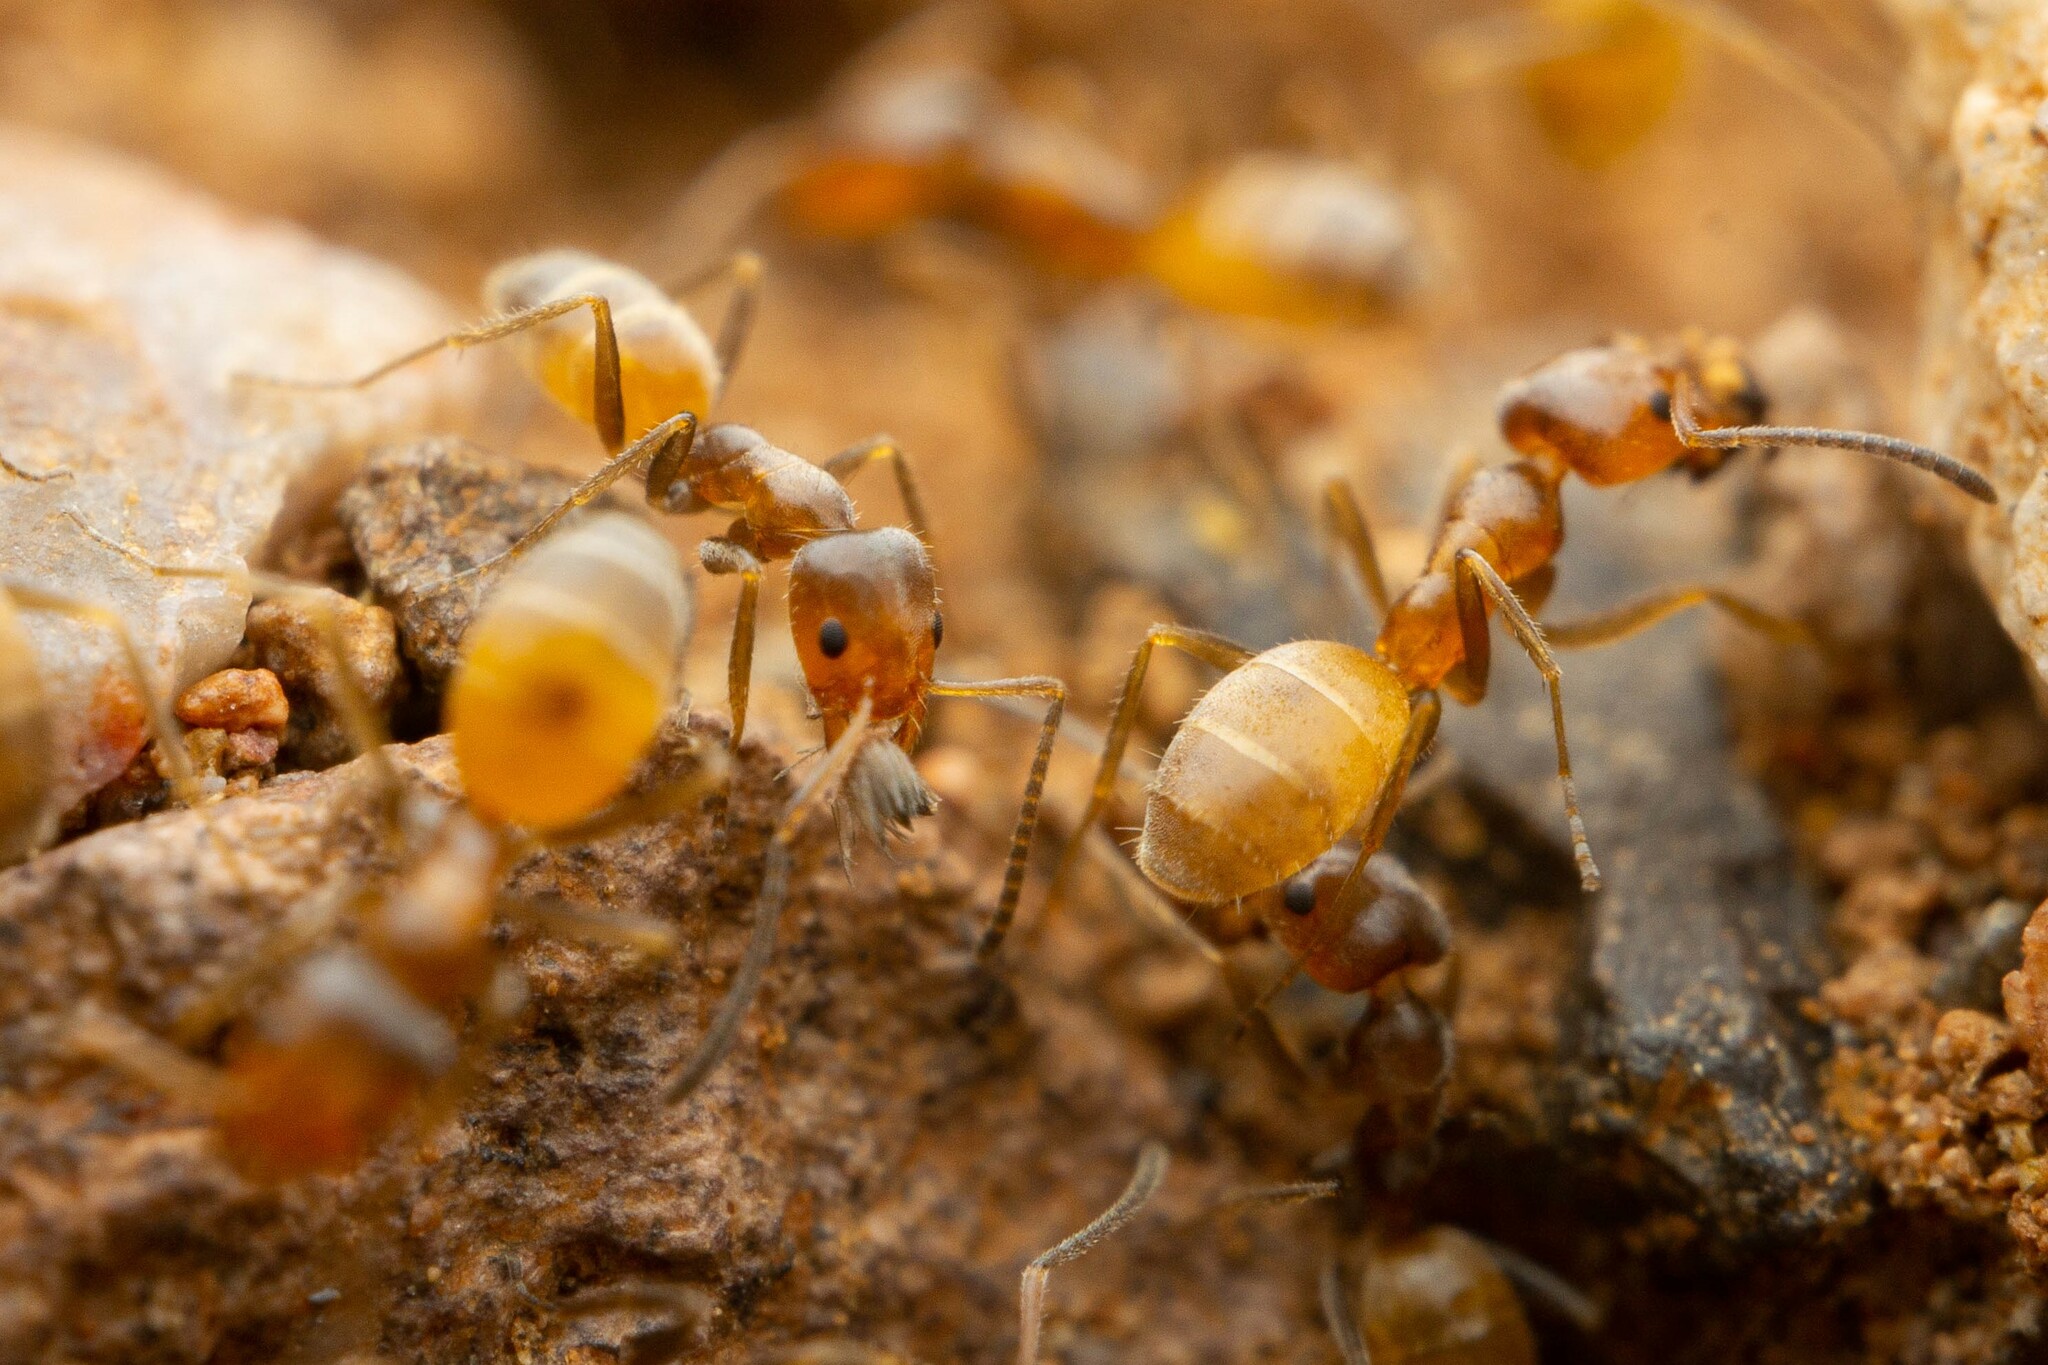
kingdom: Animalia
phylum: Arthropoda
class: Insecta
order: Hymenoptera
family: Formicidae
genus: Forelius
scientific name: Forelius mccooki
